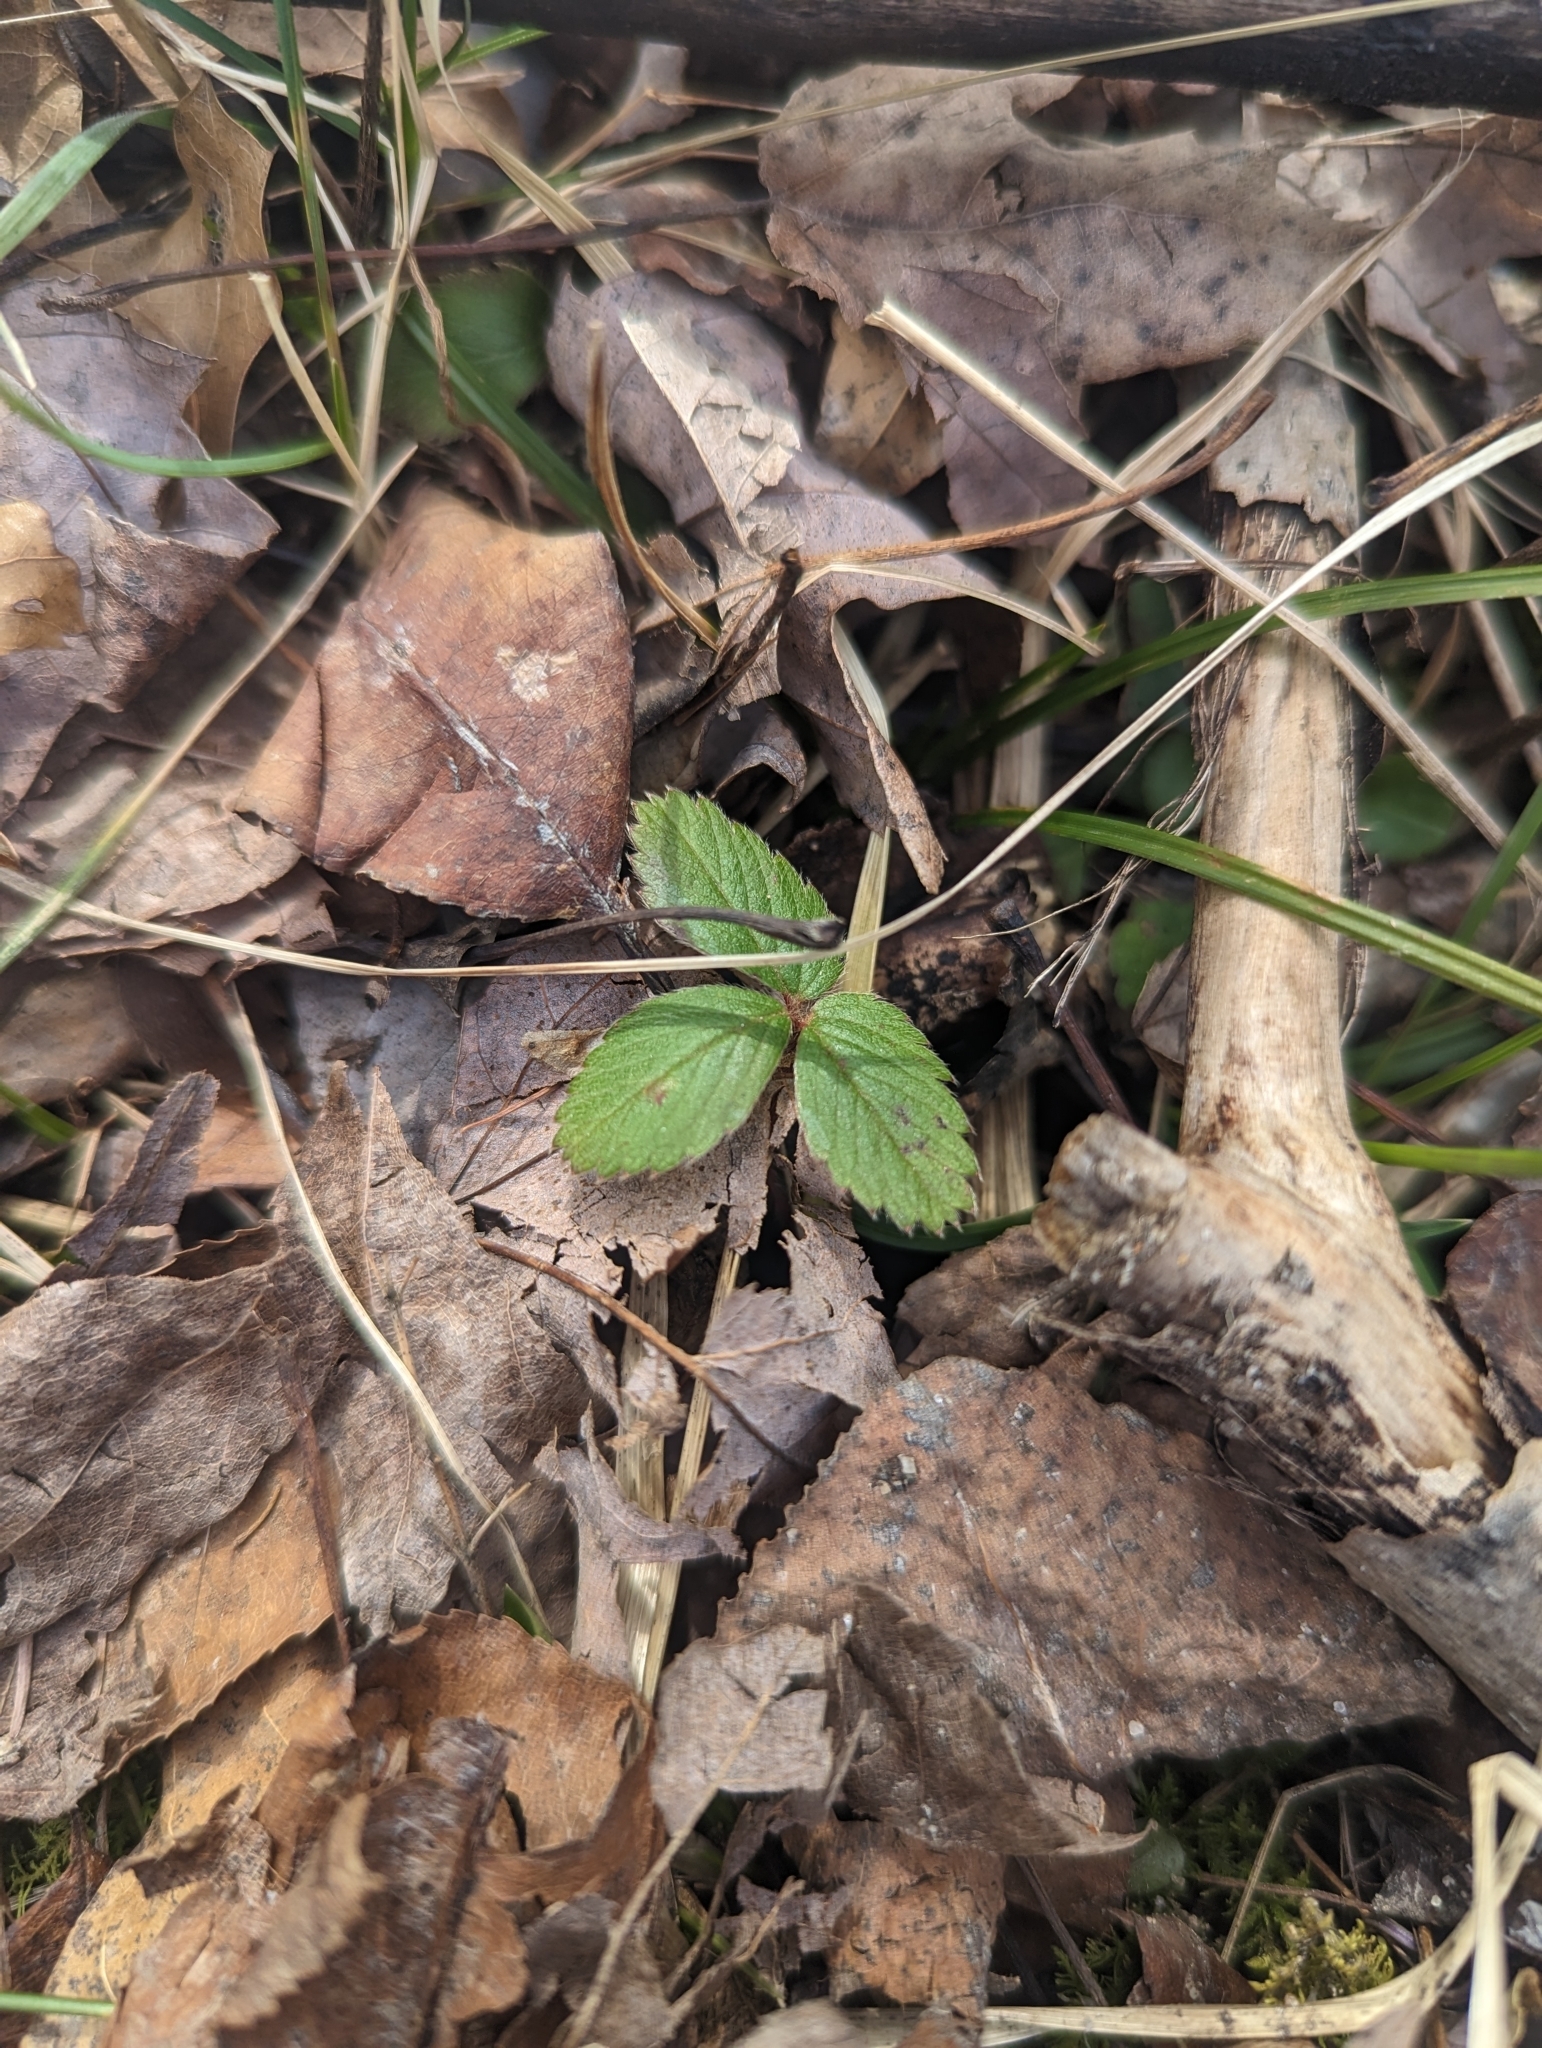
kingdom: Plantae
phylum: Tracheophyta
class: Magnoliopsida
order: Rosales
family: Rosaceae
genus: Fragaria
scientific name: Fragaria virginiana
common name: Thickleaved wild strawberry
